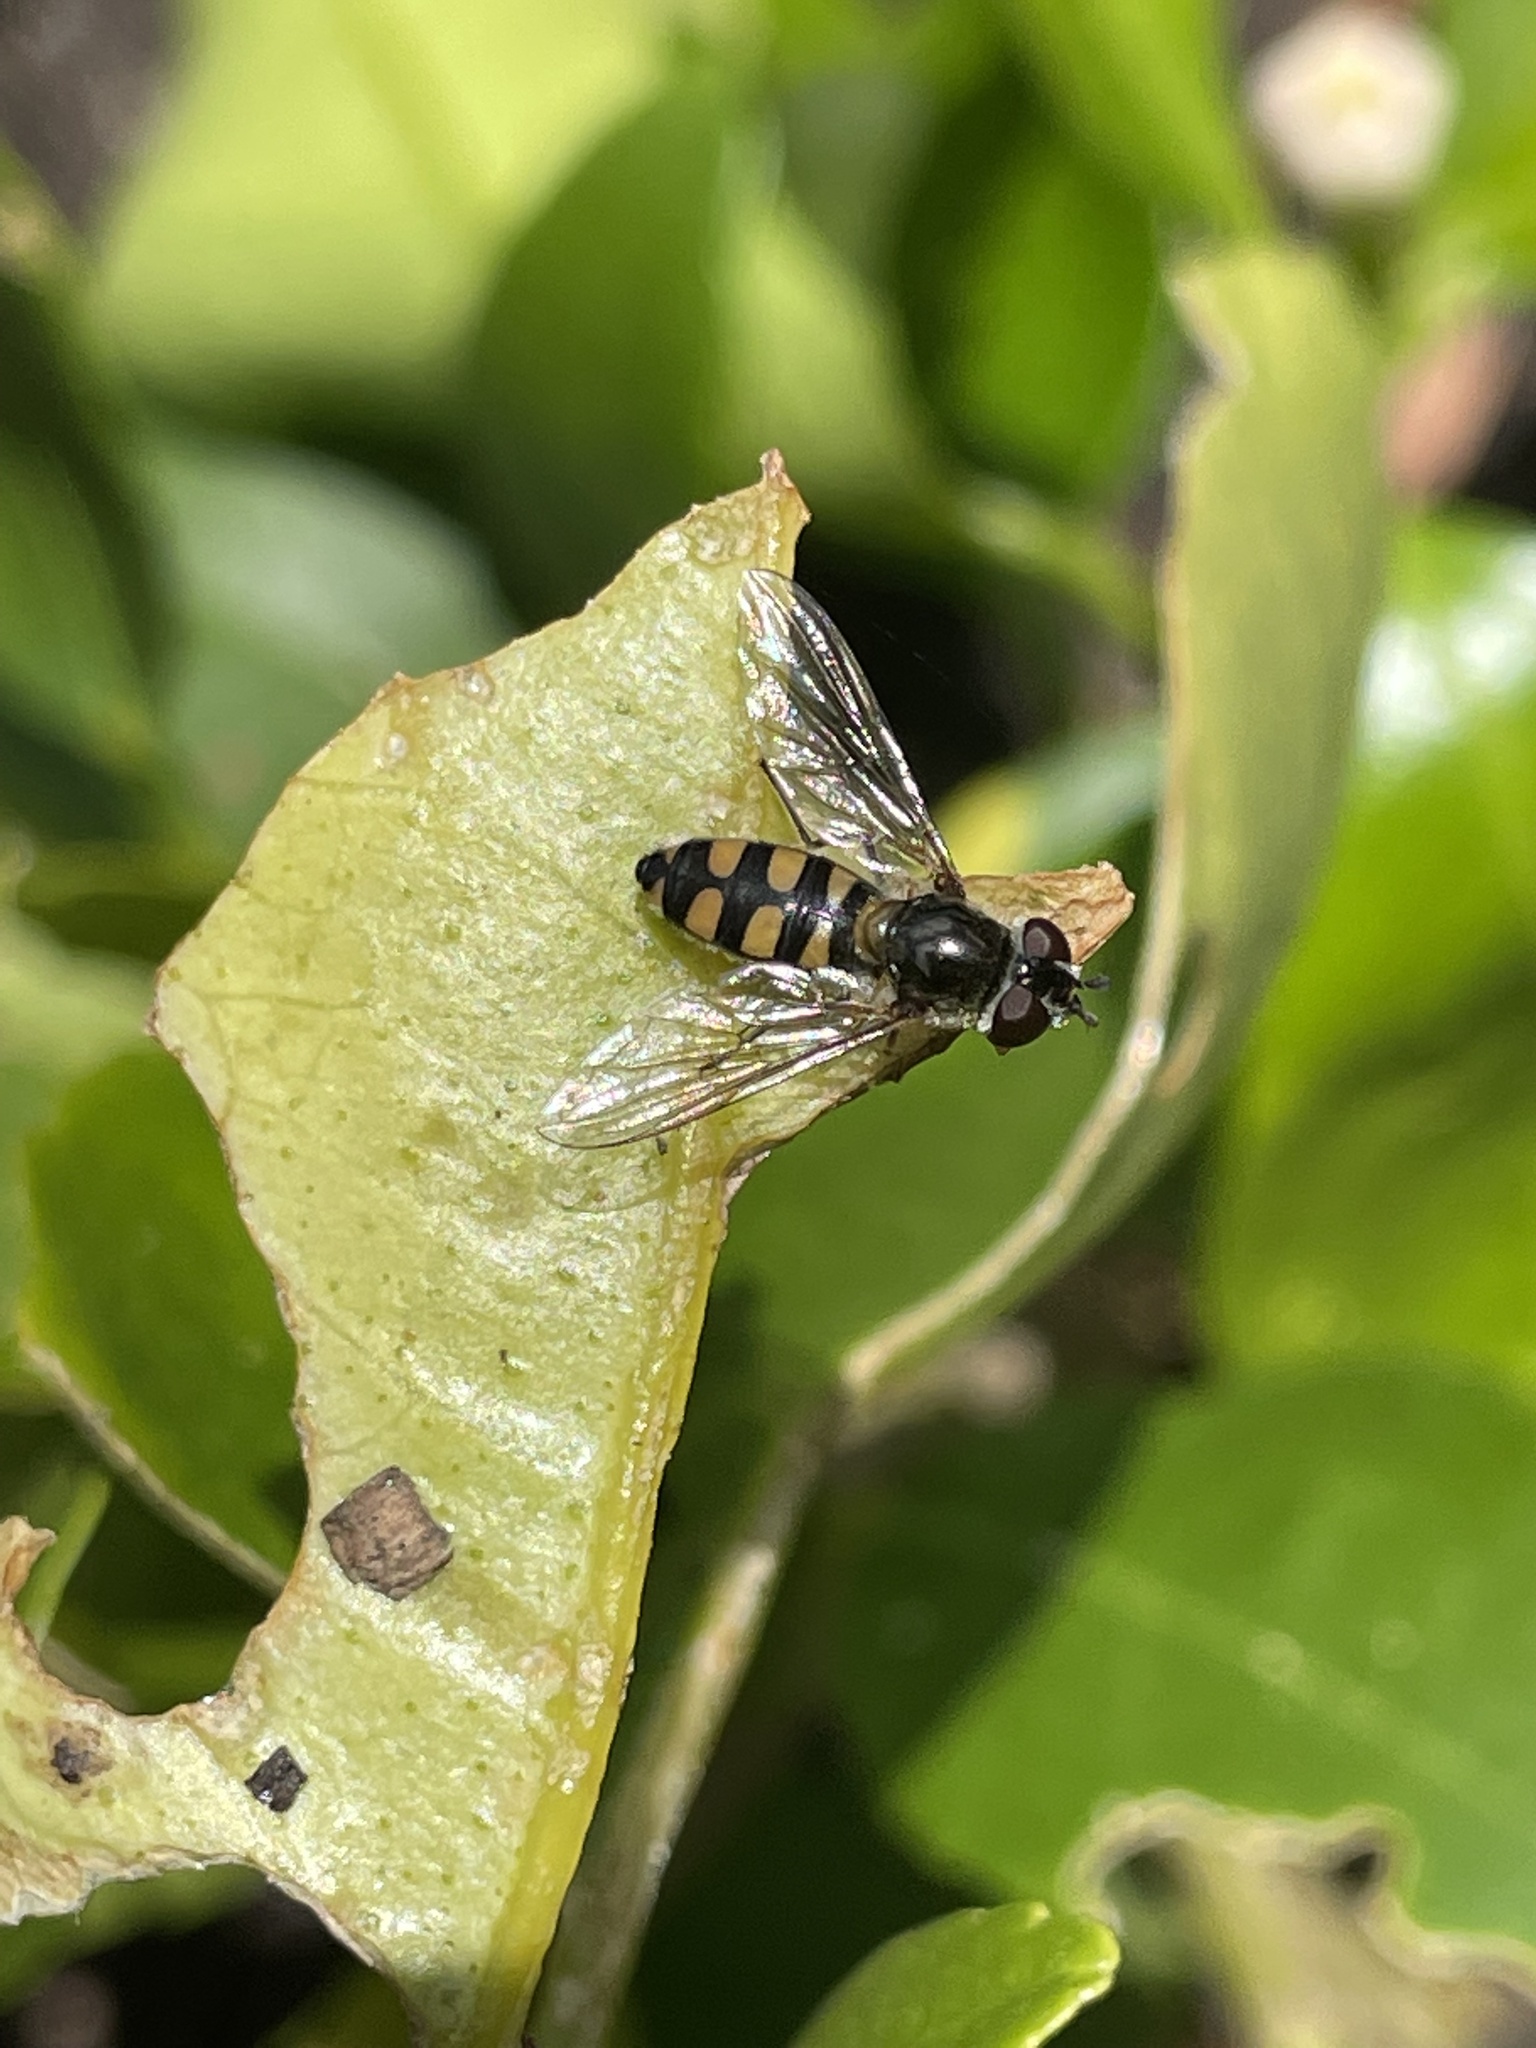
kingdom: Animalia
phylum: Arthropoda
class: Insecta
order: Diptera
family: Syrphidae
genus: Melangyna
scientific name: Melangyna viridiceps
